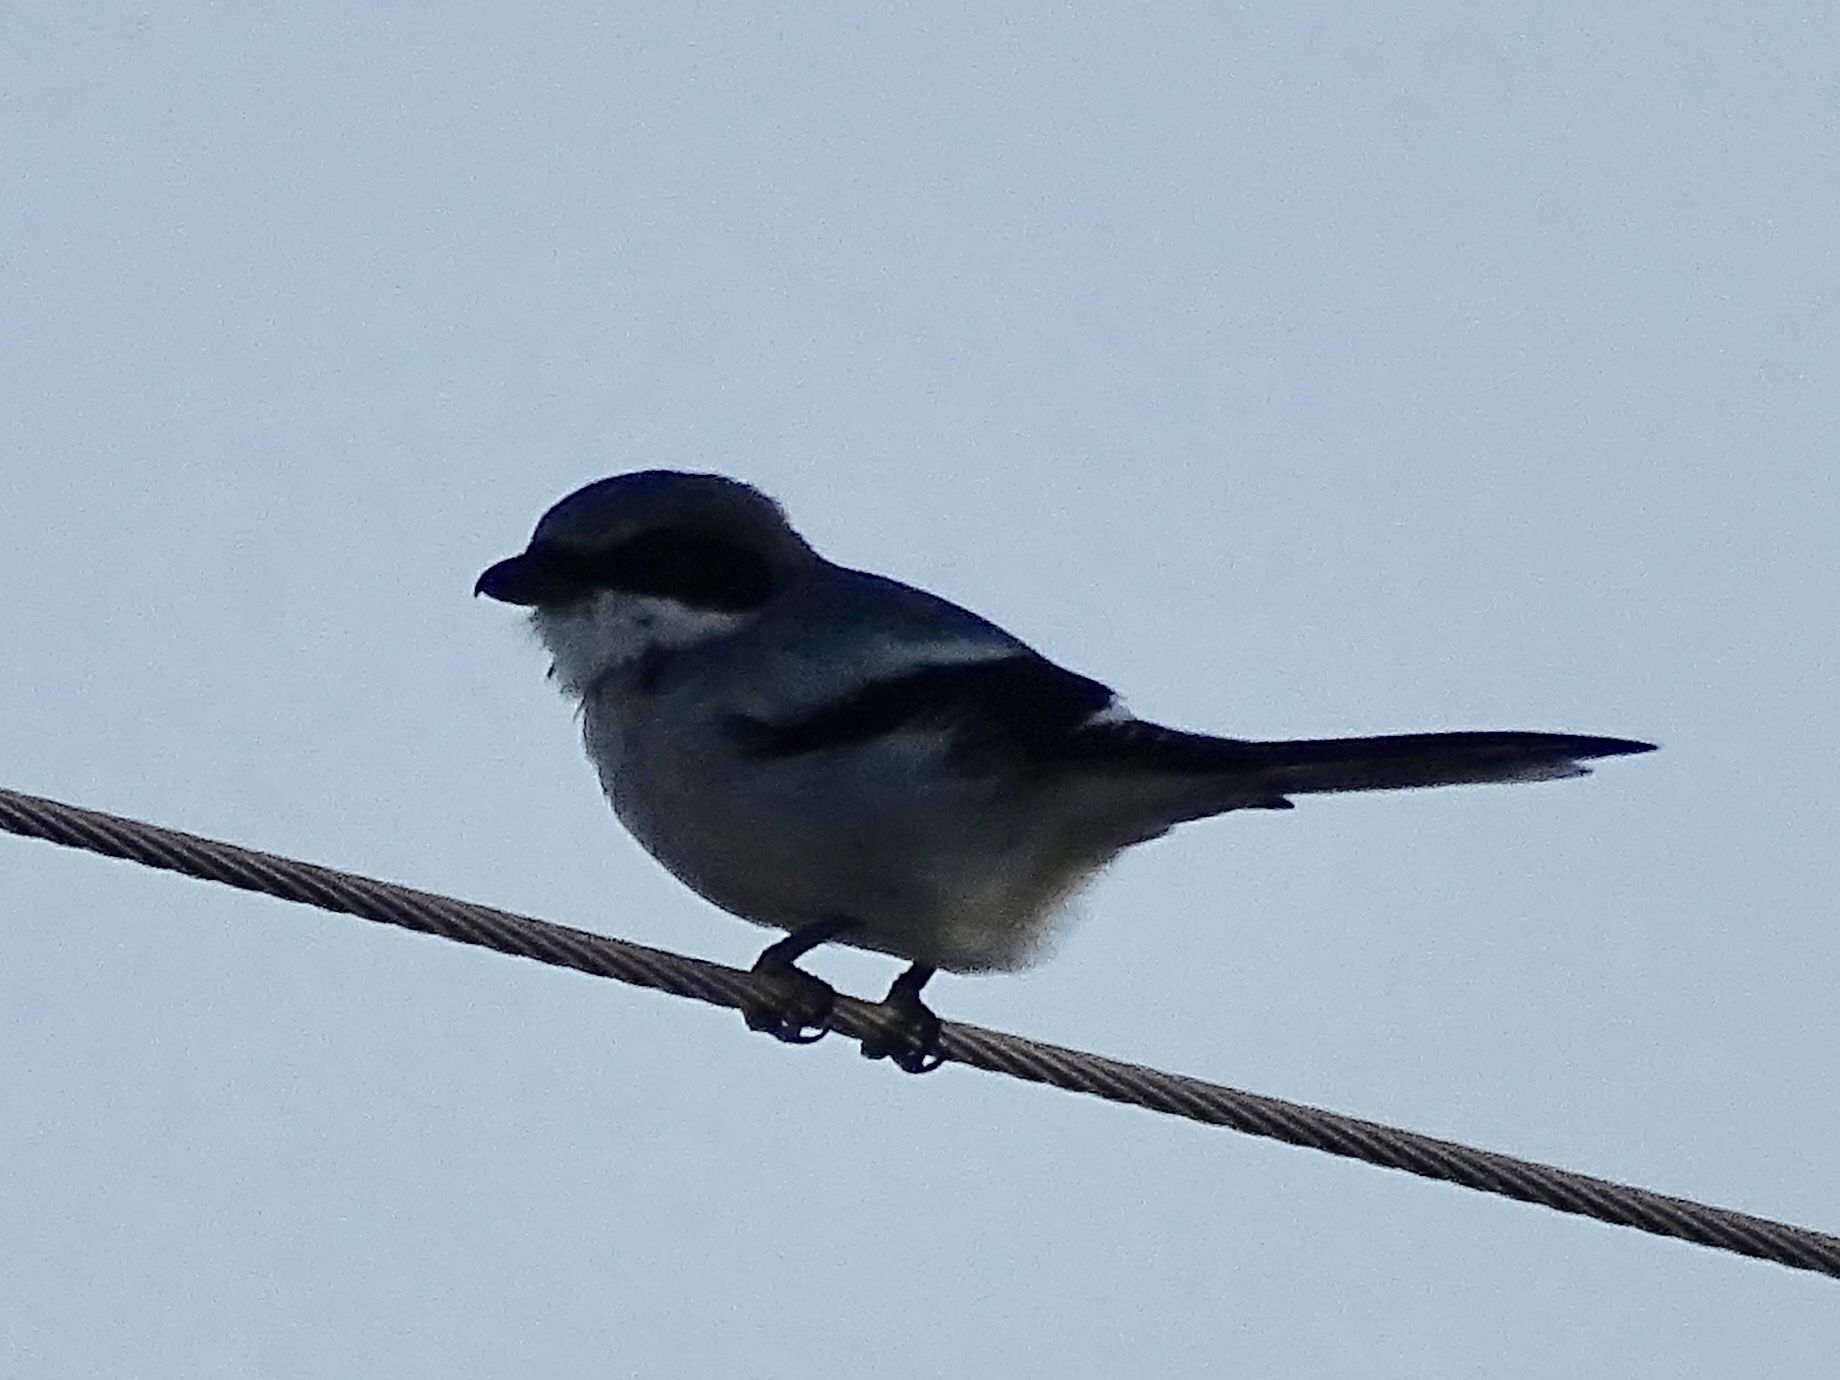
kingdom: Animalia
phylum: Chordata
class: Aves
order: Passeriformes
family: Laniidae
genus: Lanius
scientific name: Lanius ludovicianus
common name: Loggerhead shrike
